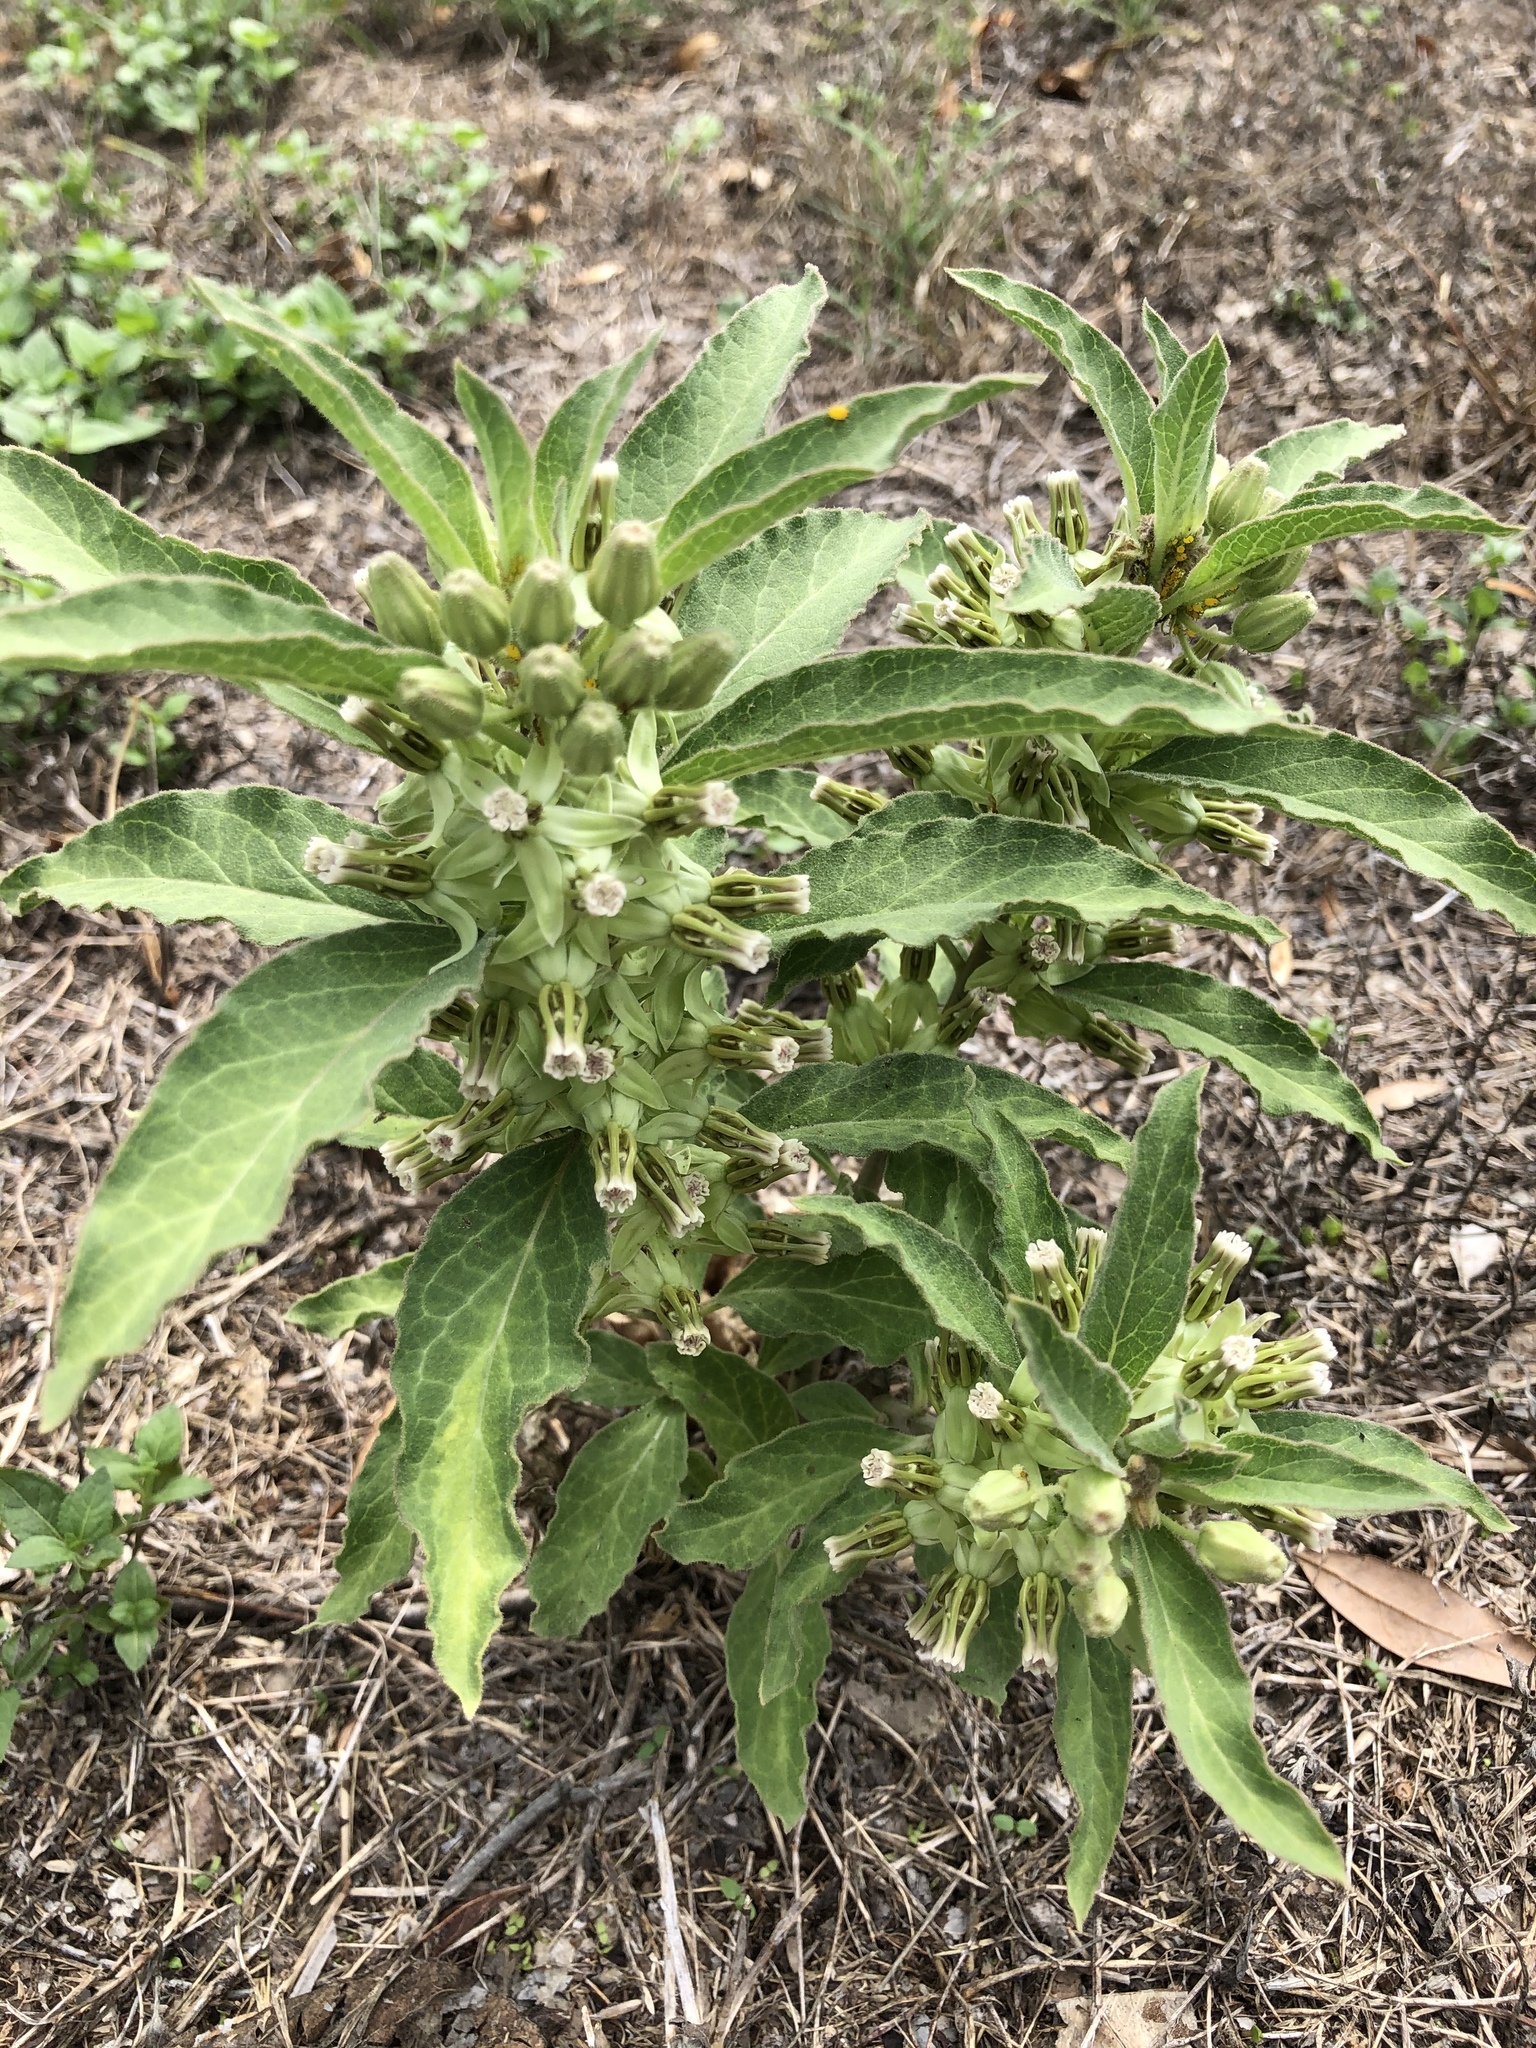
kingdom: Plantae
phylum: Tracheophyta
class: Magnoliopsida
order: Gentianales
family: Apocynaceae
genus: Asclepias
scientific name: Asclepias oenotheroides
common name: Zizotes milkweed
